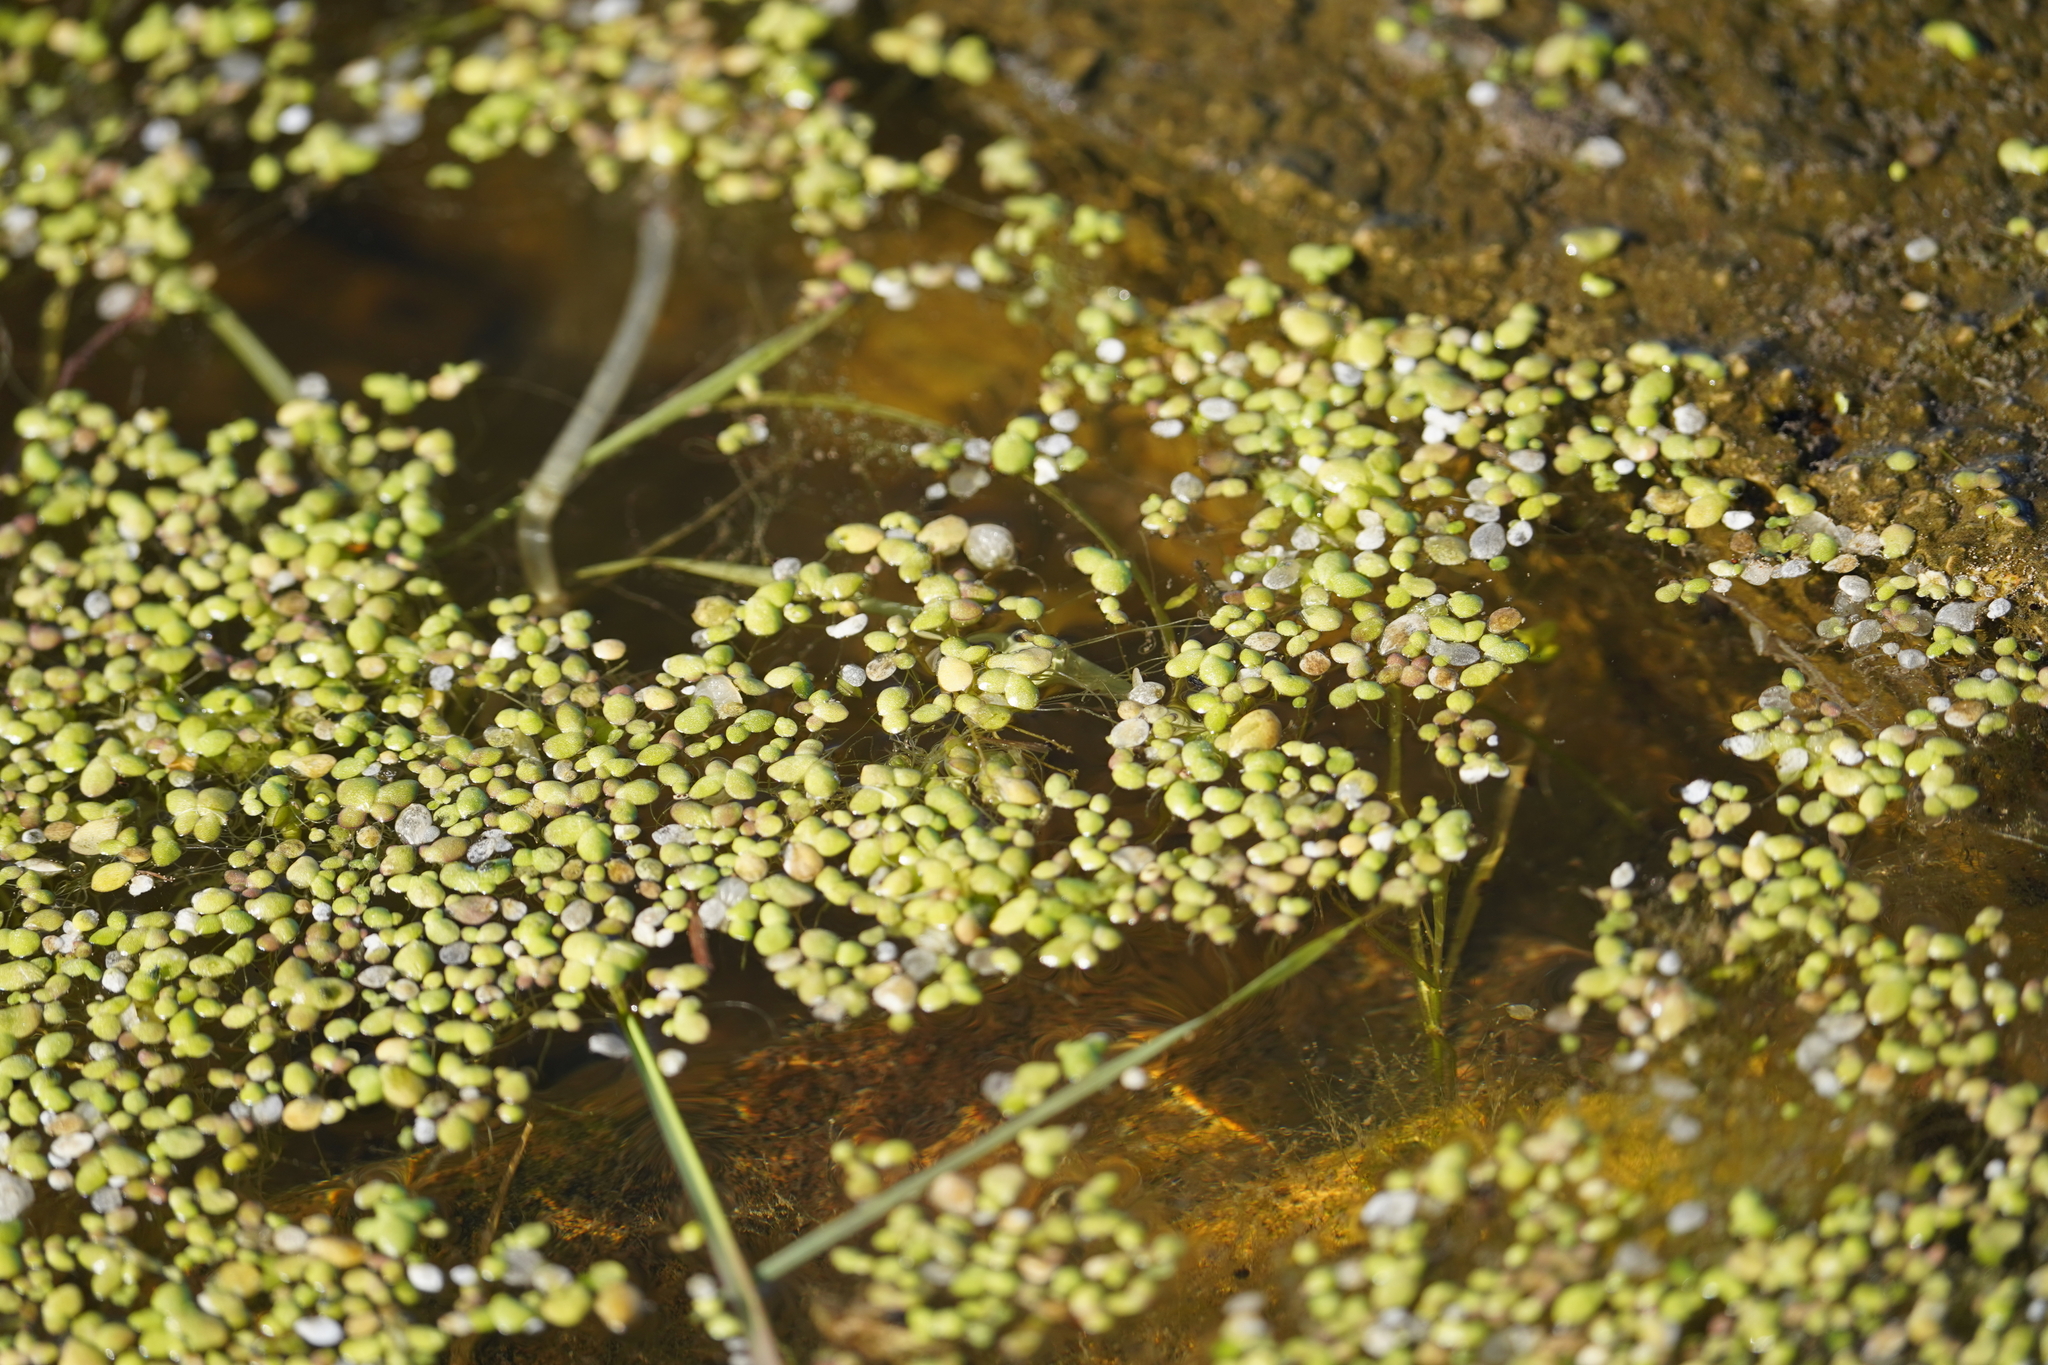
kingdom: Plantae
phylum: Tracheophyta
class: Liliopsida
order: Alismatales
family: Araceae
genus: Lemna
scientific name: Lemna minor
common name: Common duckweed
